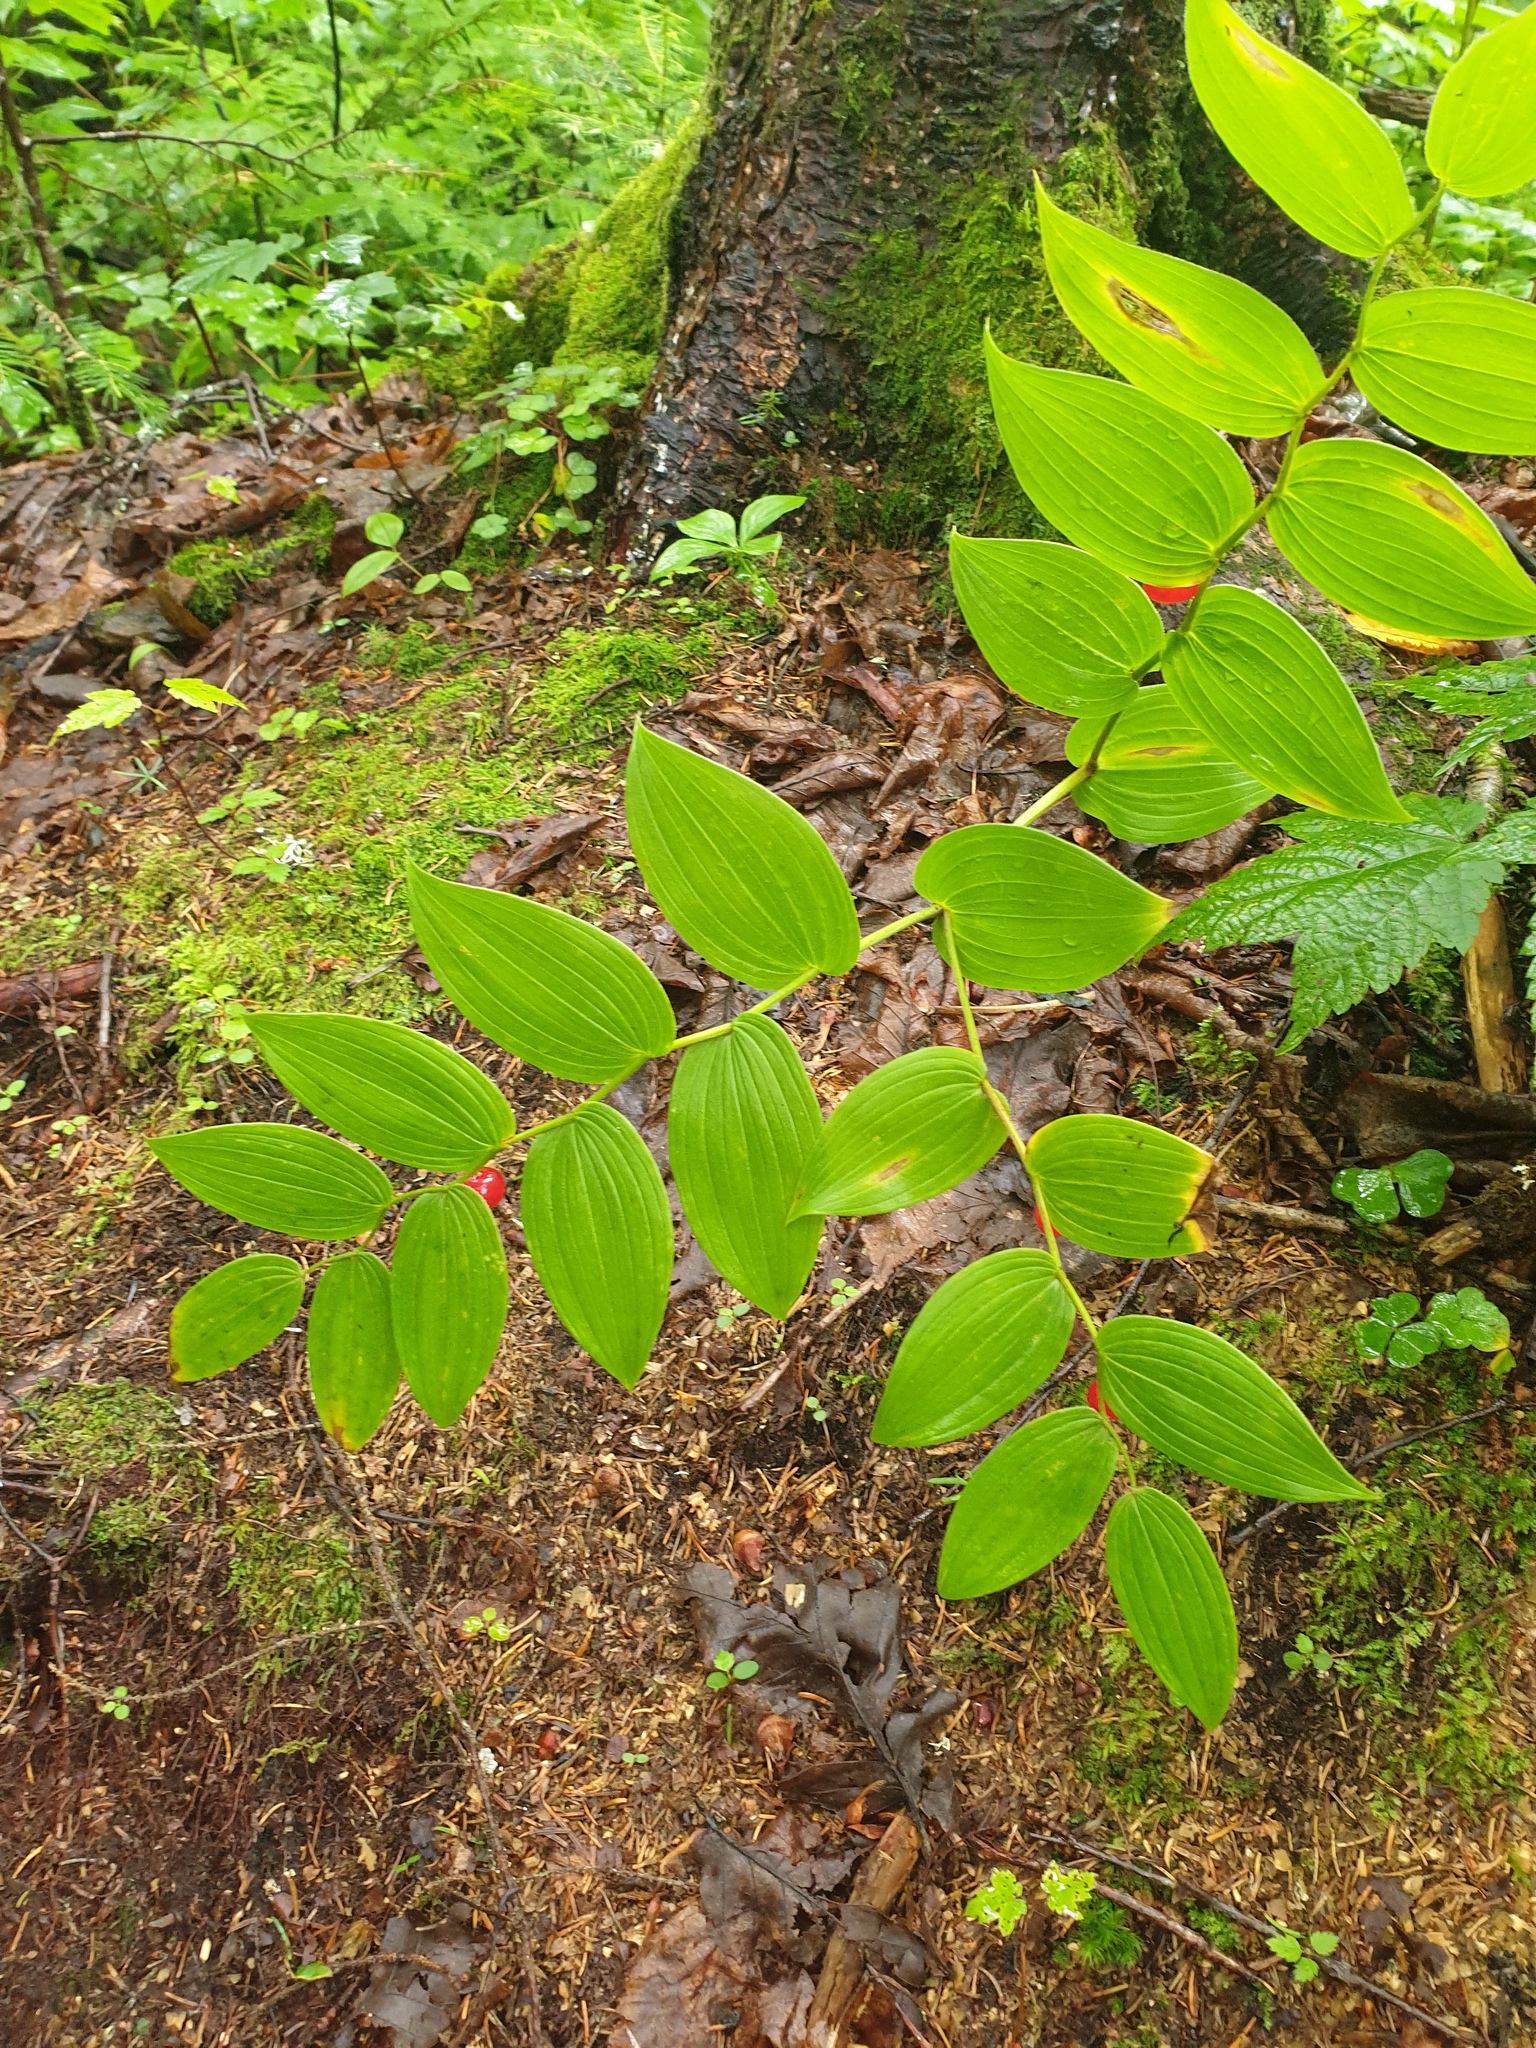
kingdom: Plantae
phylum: Tracheophyta
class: Liliopsida
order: Liliales
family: Liliaceae
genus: Streptopus
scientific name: Streptopus lanceolatus
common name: Rose mandarin
